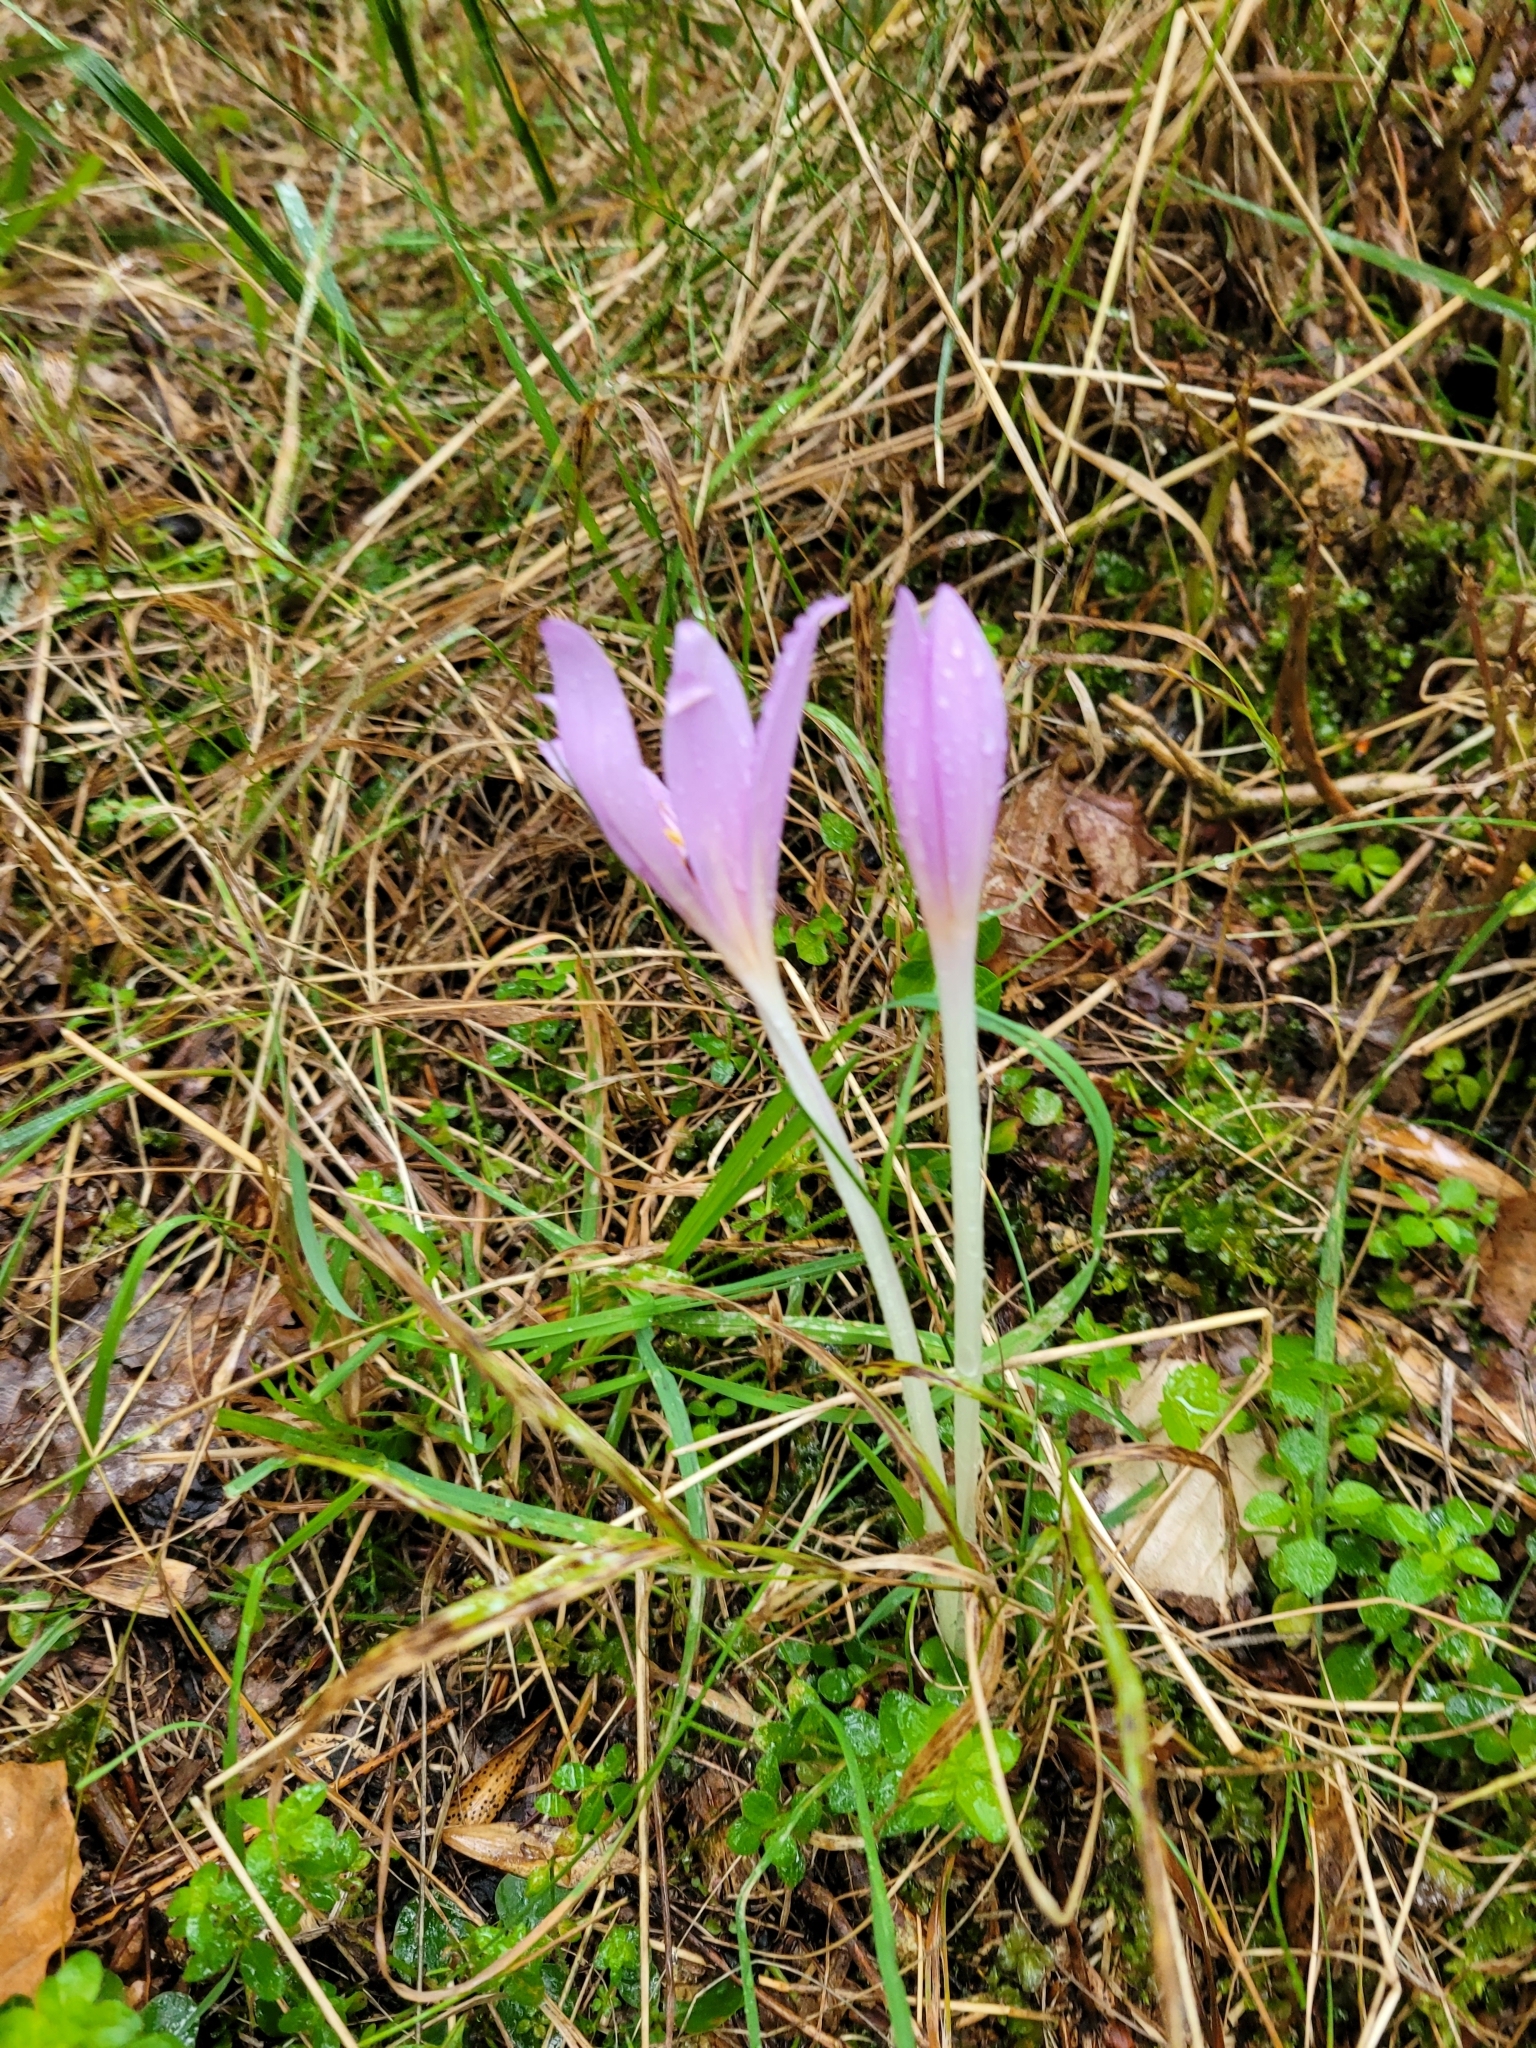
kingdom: Plantae
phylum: Tracheophyta
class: Liliopsida
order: Liliales
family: Colchicaceae
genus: Colchicum
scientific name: Colchicum autumnale
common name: Autumn crocus
